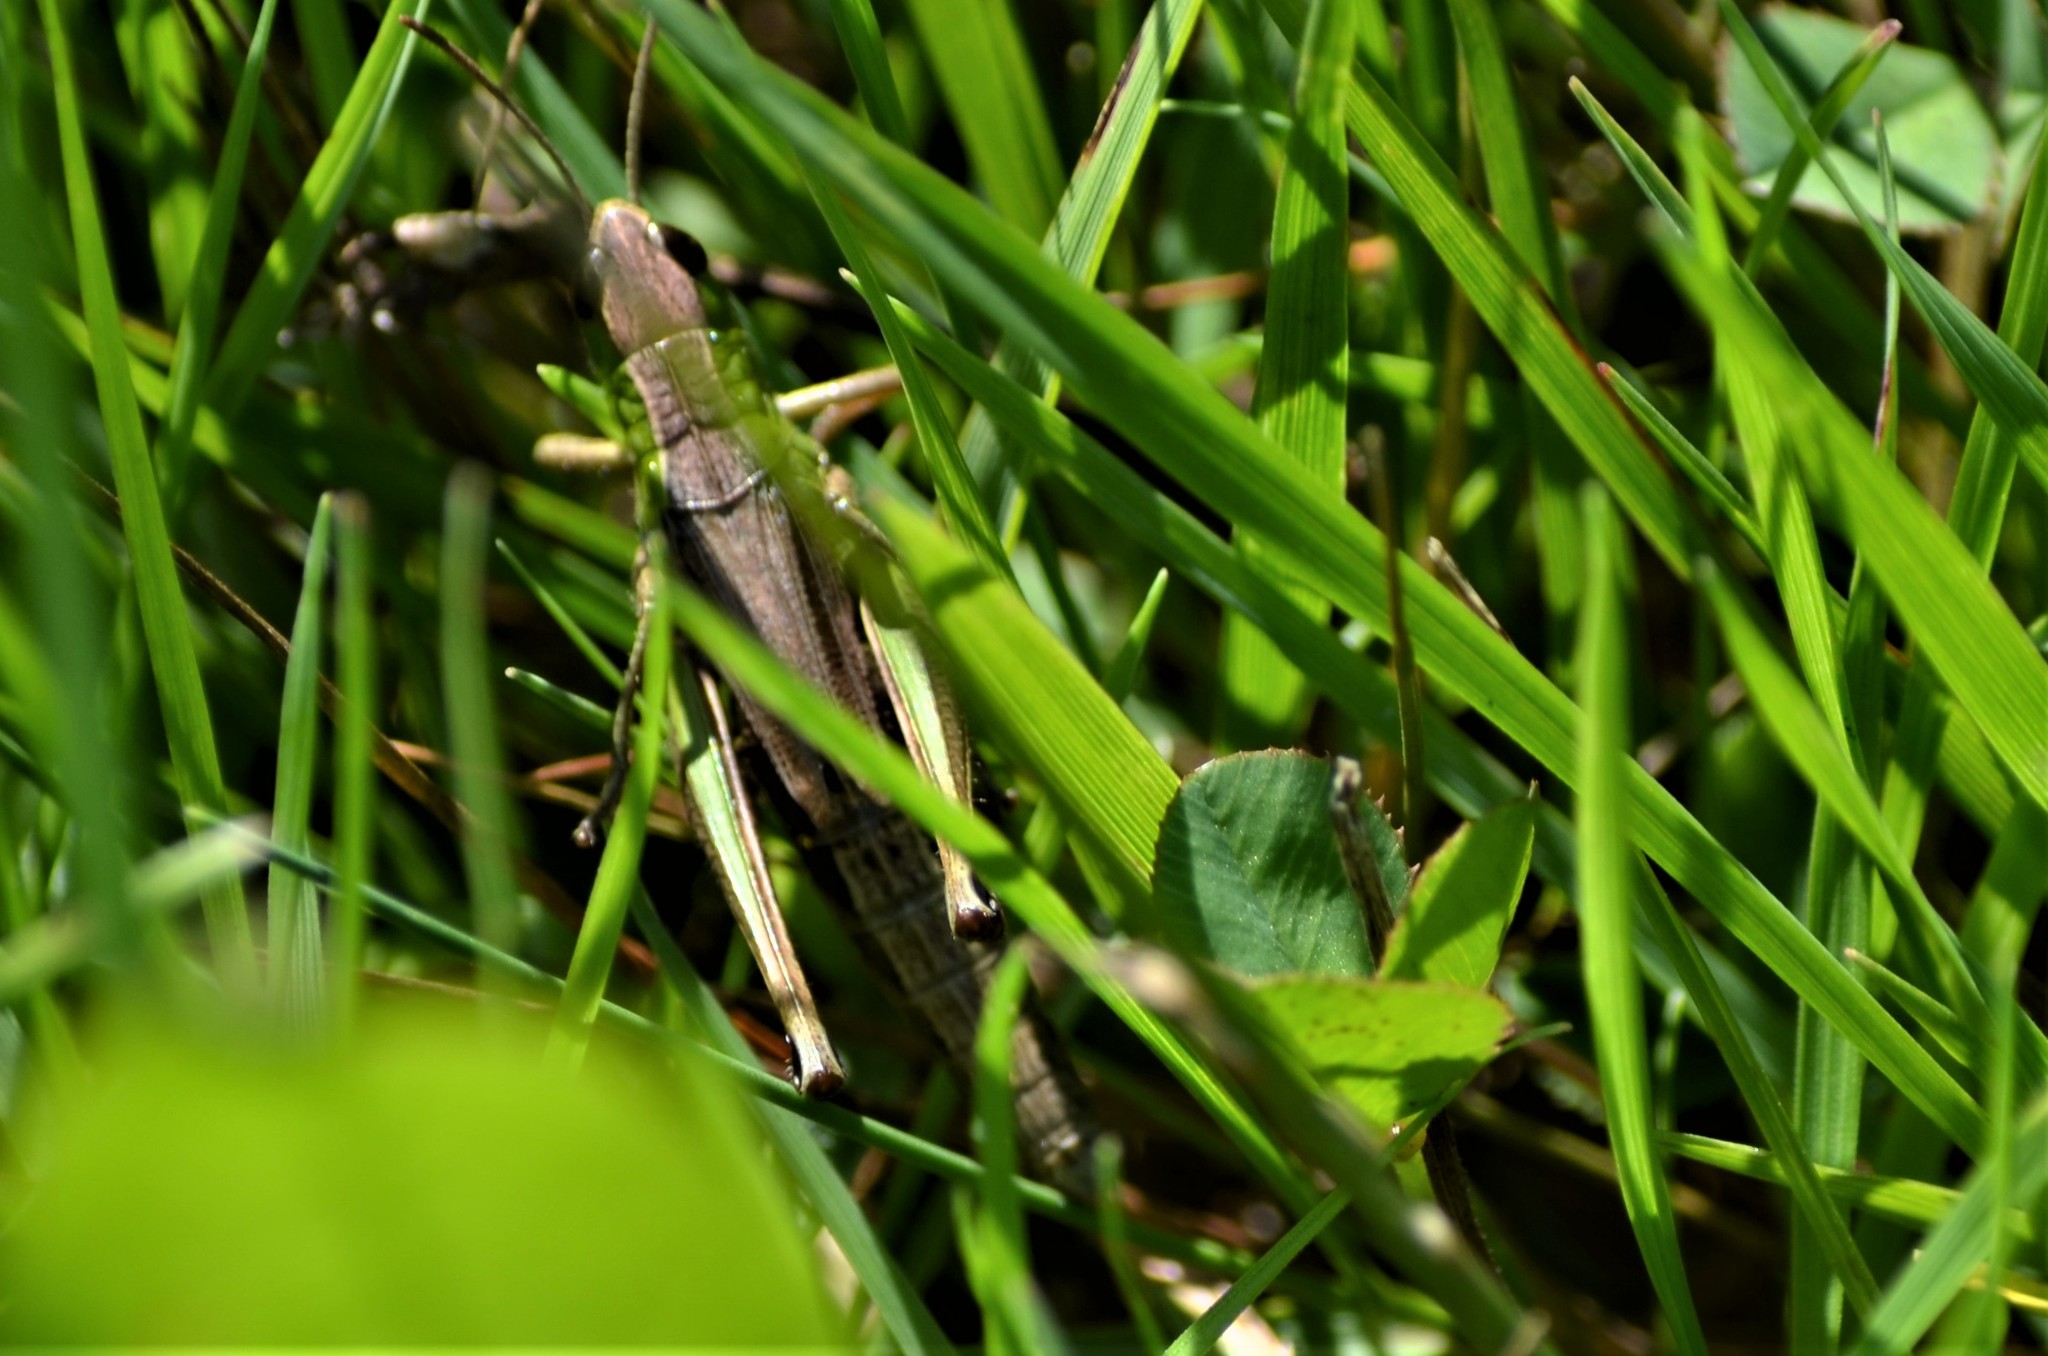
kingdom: Animalia
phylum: Arthropoda
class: Insecta
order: Orthoptera
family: Acrididae
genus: Pseudochorthippus
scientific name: Pseudochorthippus parallelus
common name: Meadow grasshopper
